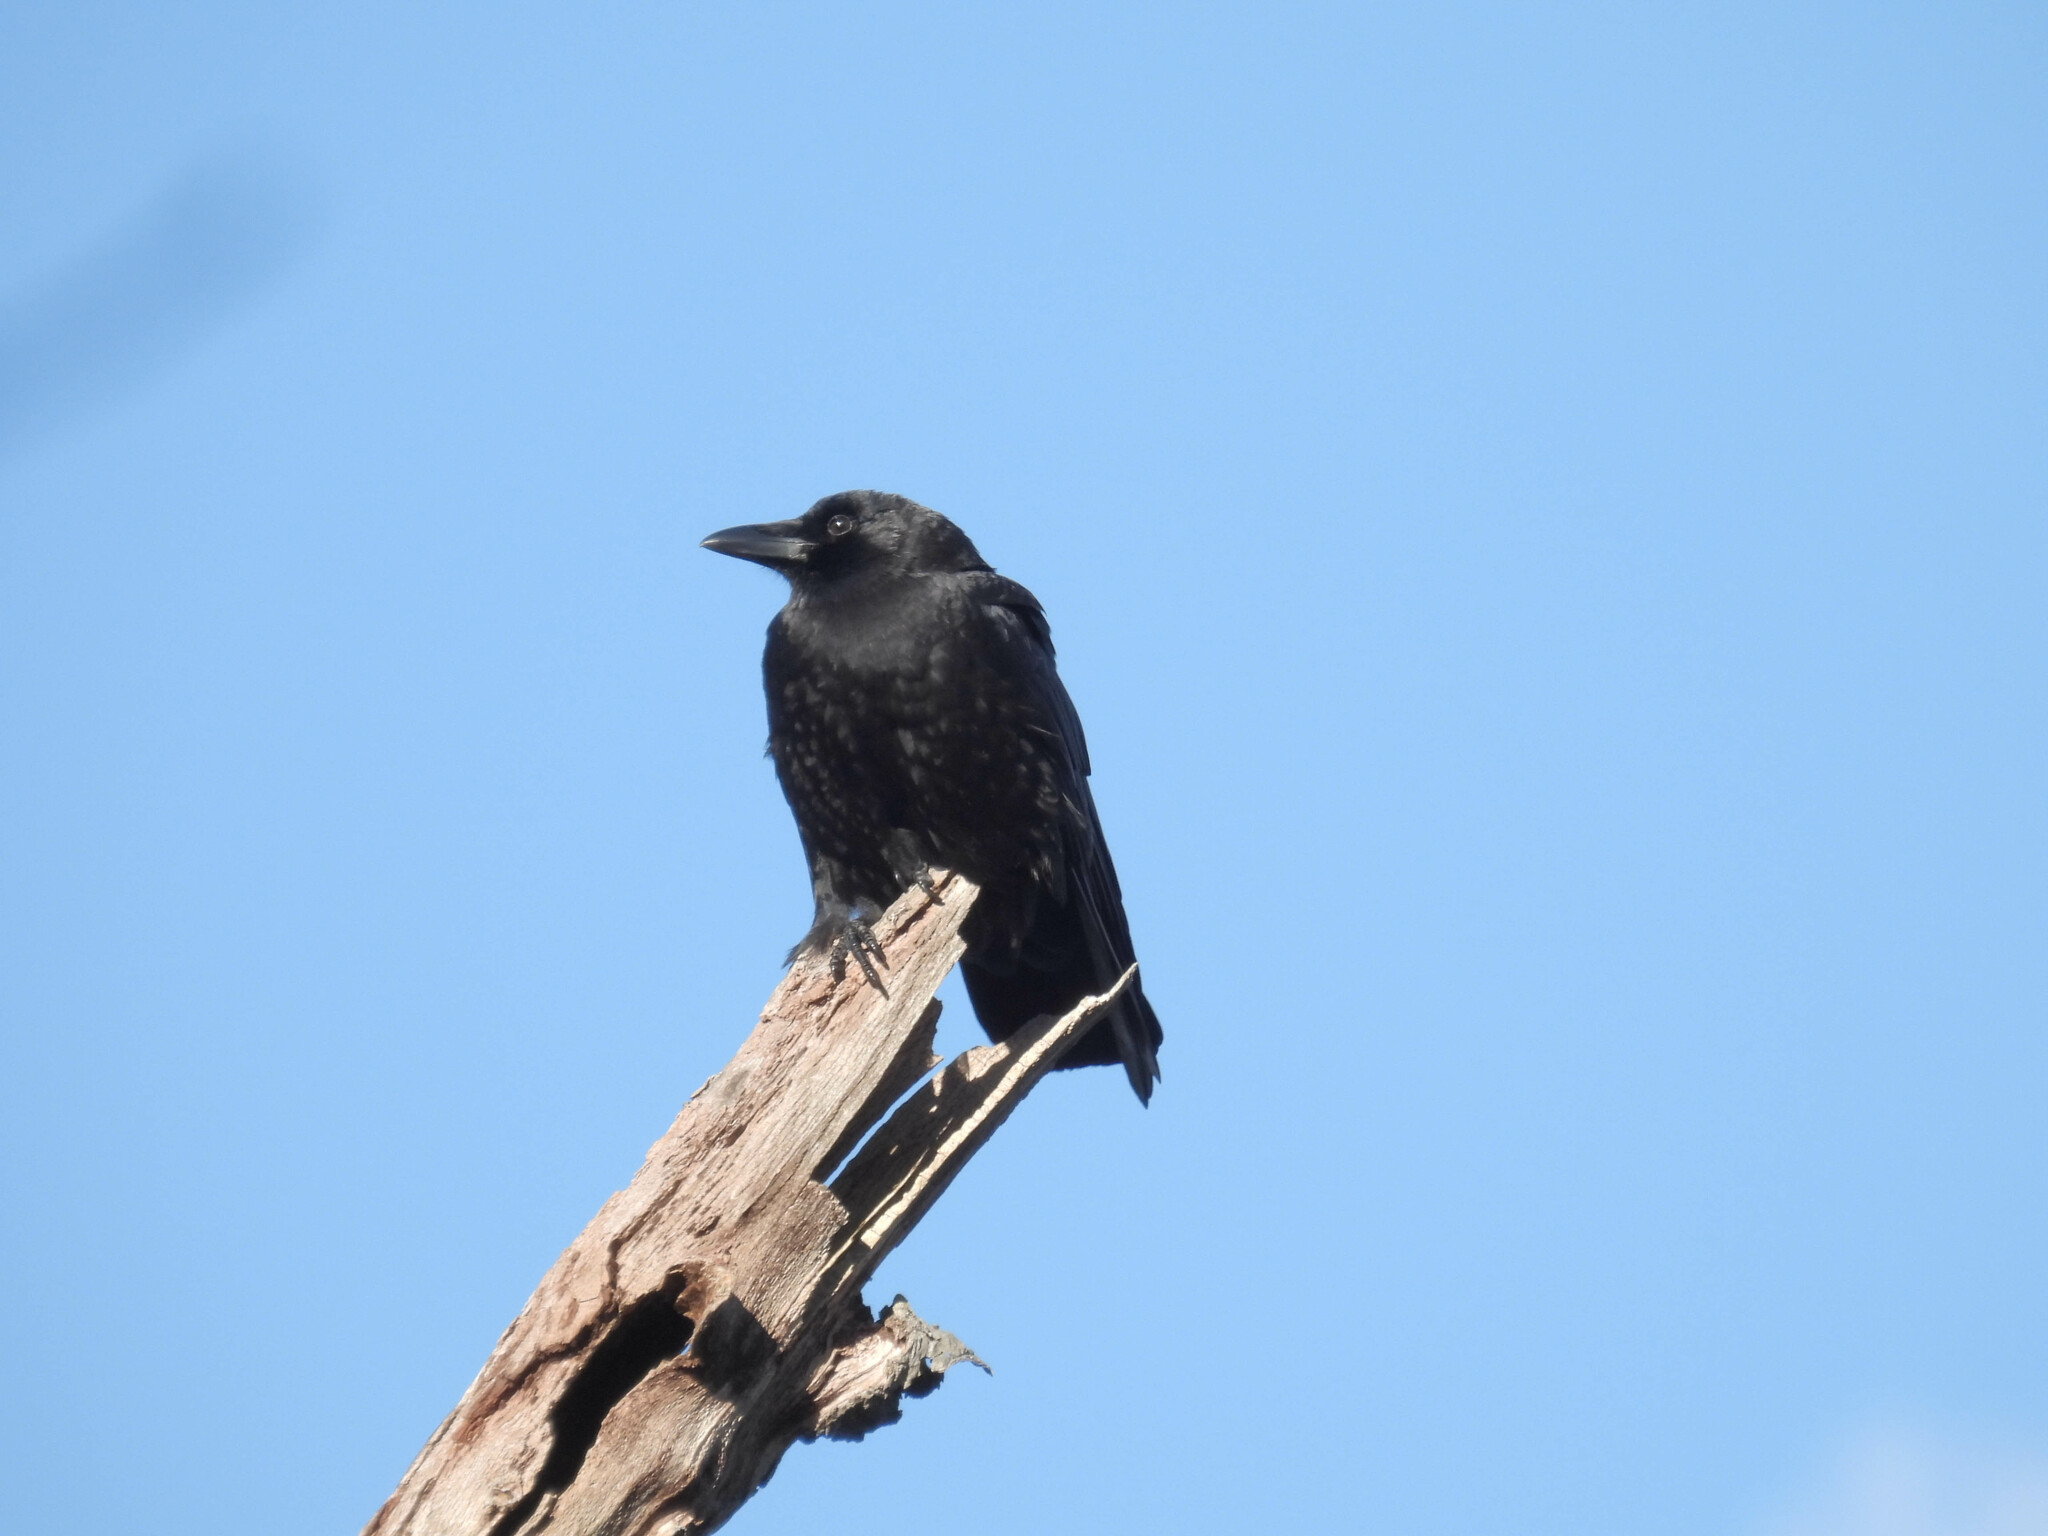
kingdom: Animalia
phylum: Chordata
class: Aves
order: Passeriformes
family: Corvidae
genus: Corvus
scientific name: Corvus brachyrhynchos
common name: American crow
